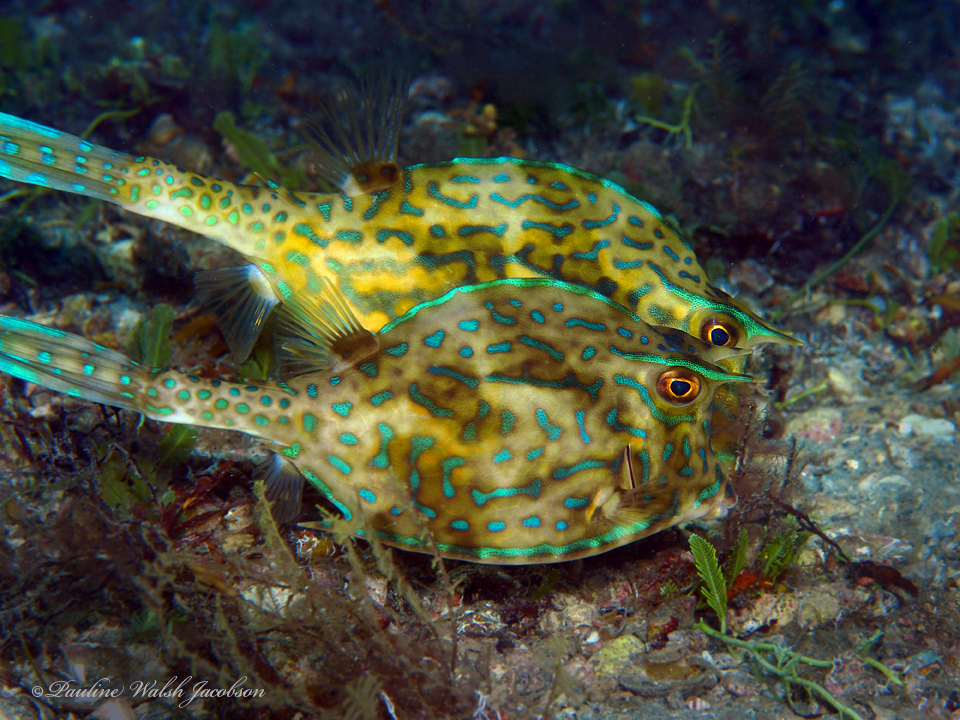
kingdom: Animalia
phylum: Chordata
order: Tetraodontiformes
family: Ostraciidae
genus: Acanthostracion
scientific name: Acanthostracion quadricornis
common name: Scrawled cowfish
